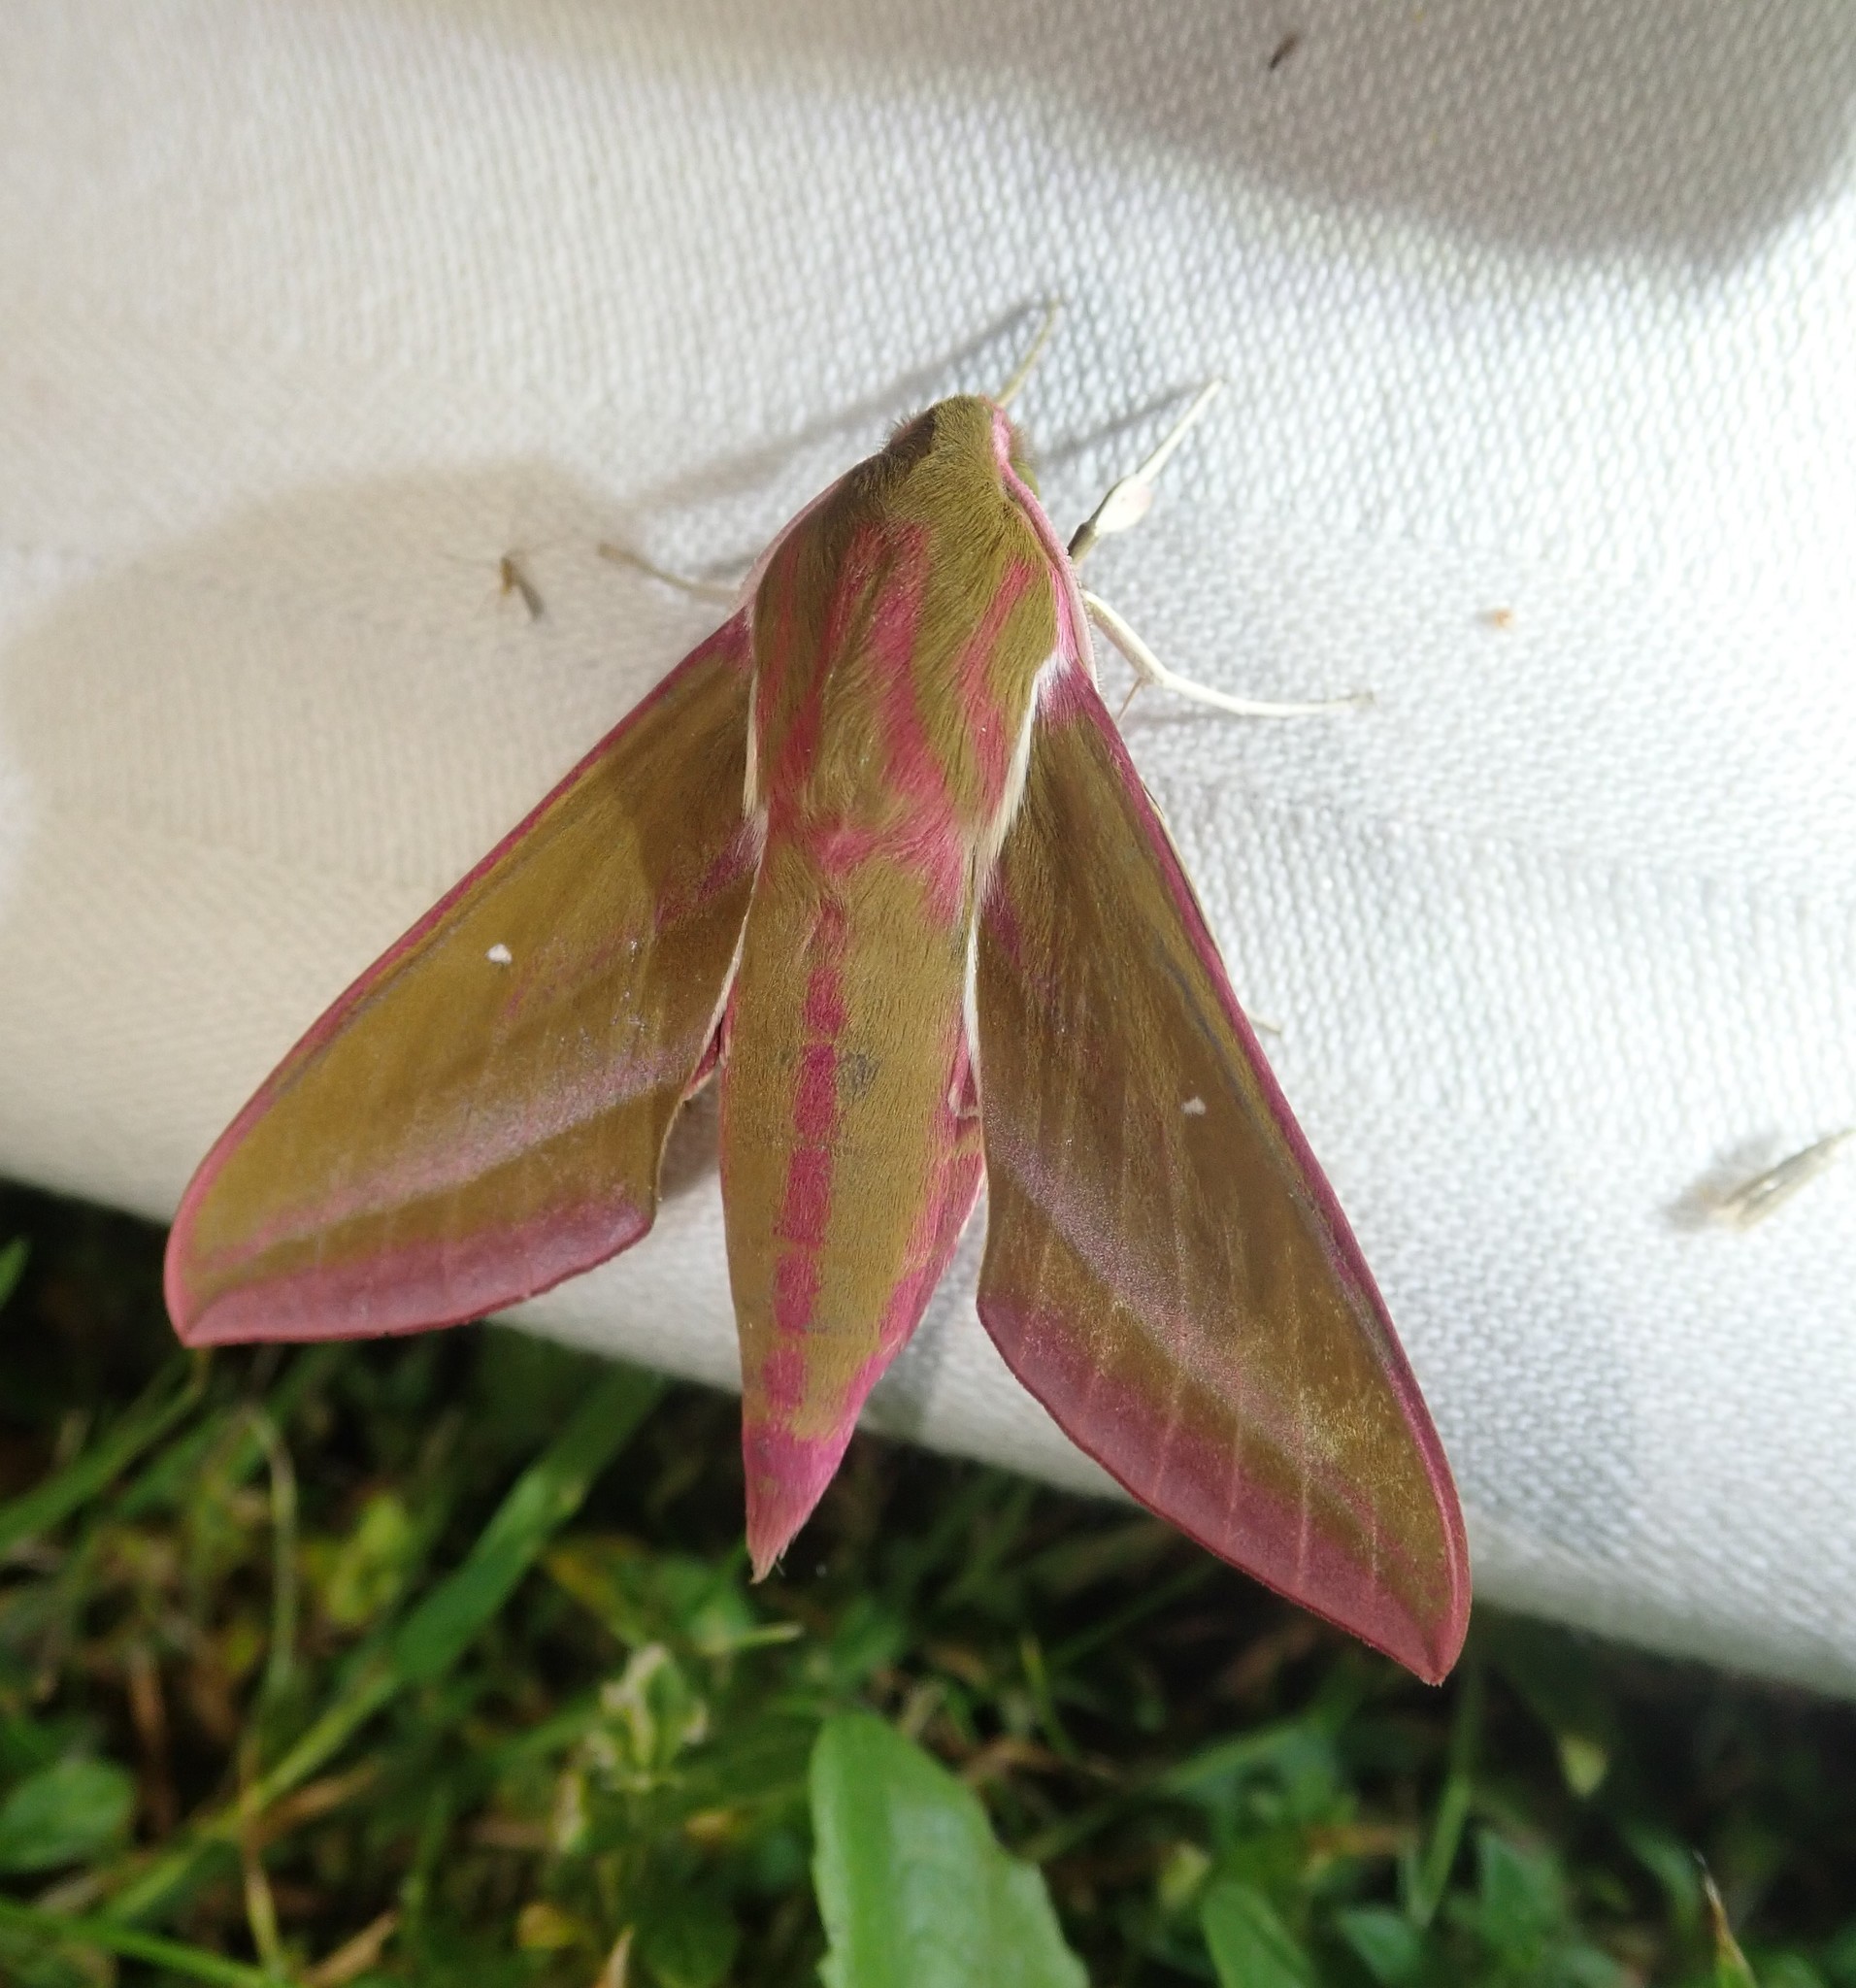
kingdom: Animalia
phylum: Arthropoda
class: Insecta
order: Lepidoptera
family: Sphingidae
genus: Deilephila
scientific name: Deilephila elpenor
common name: Elephant hawk-moth
